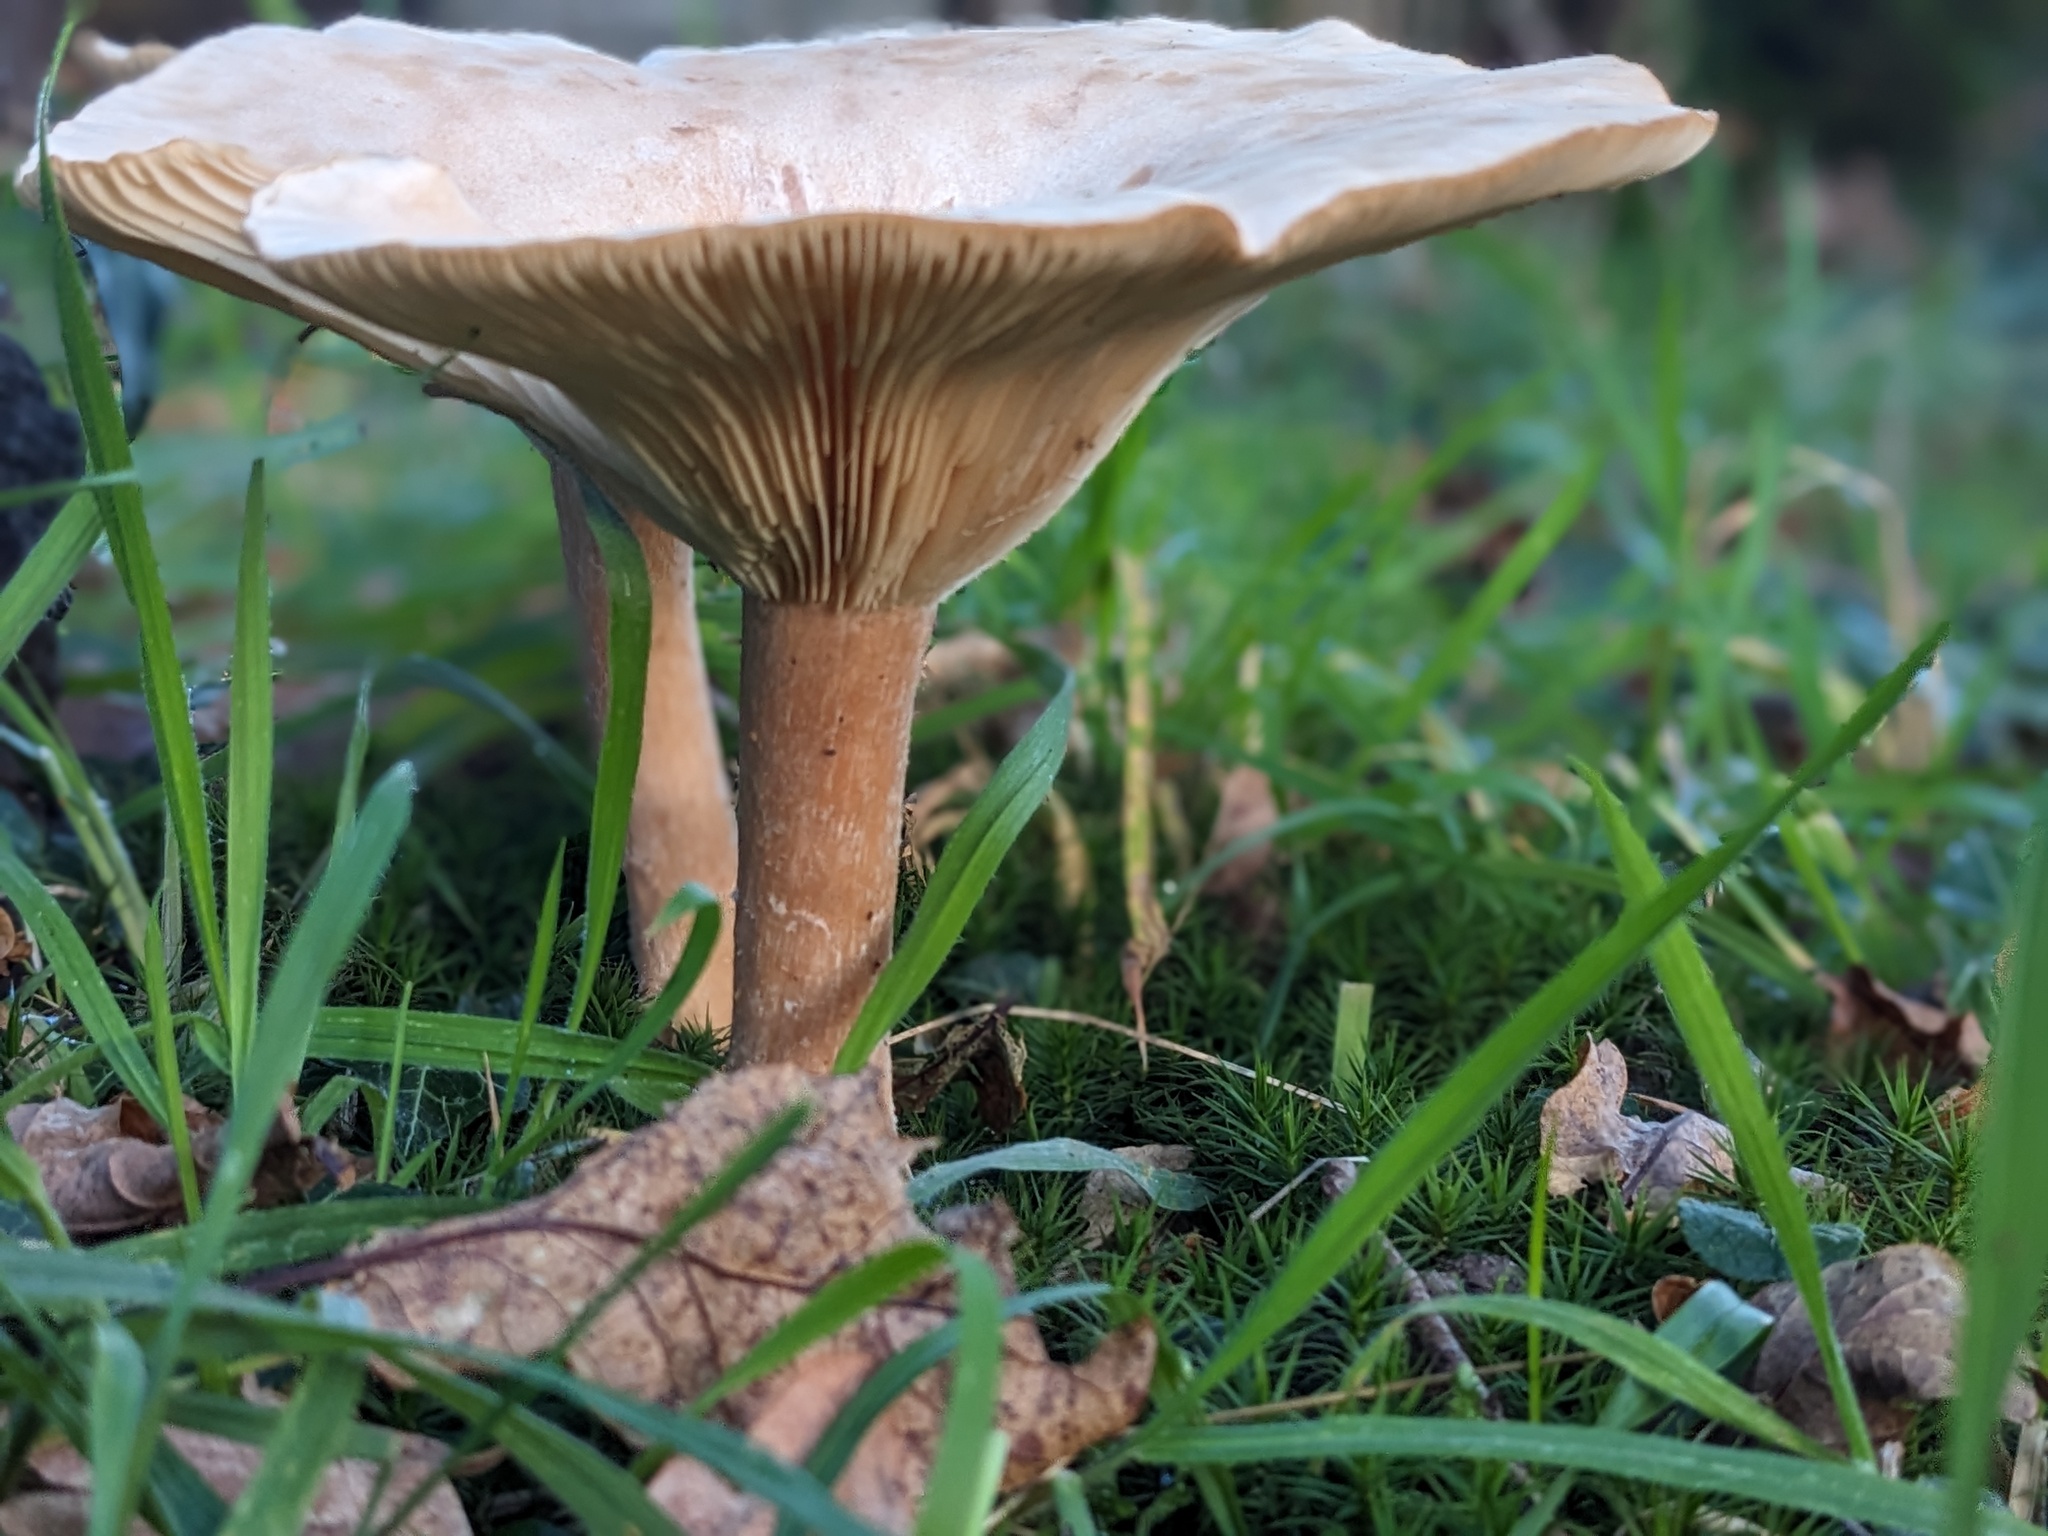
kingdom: Fungi
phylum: Basidiomycota
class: Agaricomycetes
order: Agaricales
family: Tricholomataceae
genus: Infundibulicybe
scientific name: Infundibulicybe geotropa
